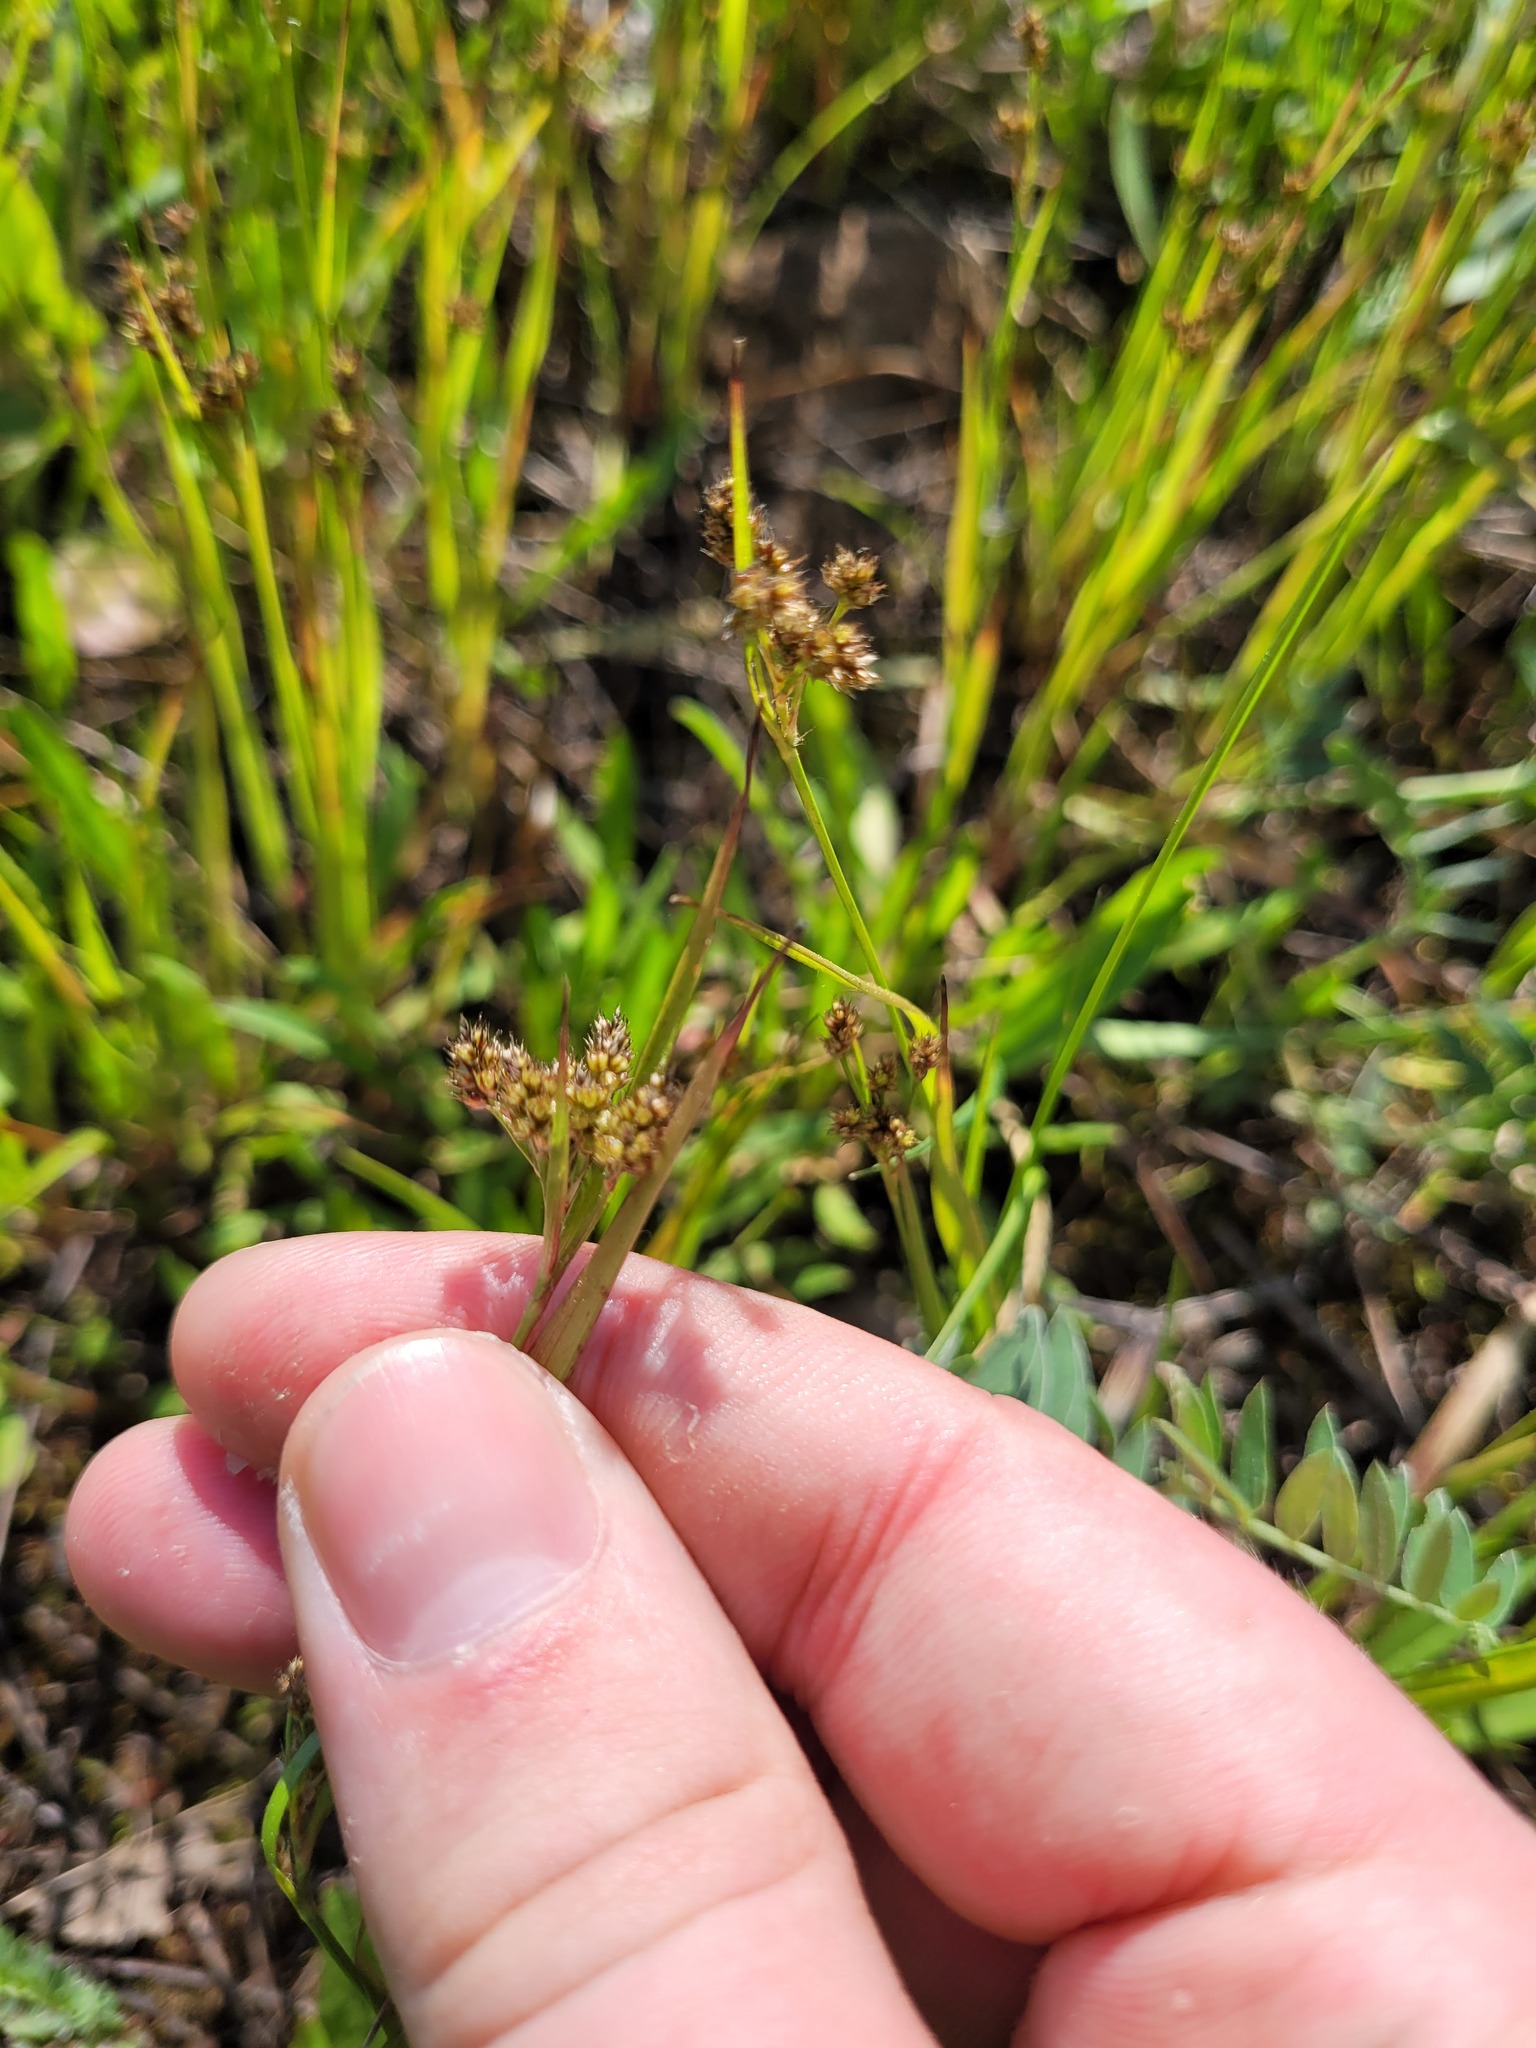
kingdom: Plantae
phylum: Tracheophyta
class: Liliopsida
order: Poales
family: Juncaceae
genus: Luzula
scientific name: Luzula pallescens
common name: Fen wood-rush
